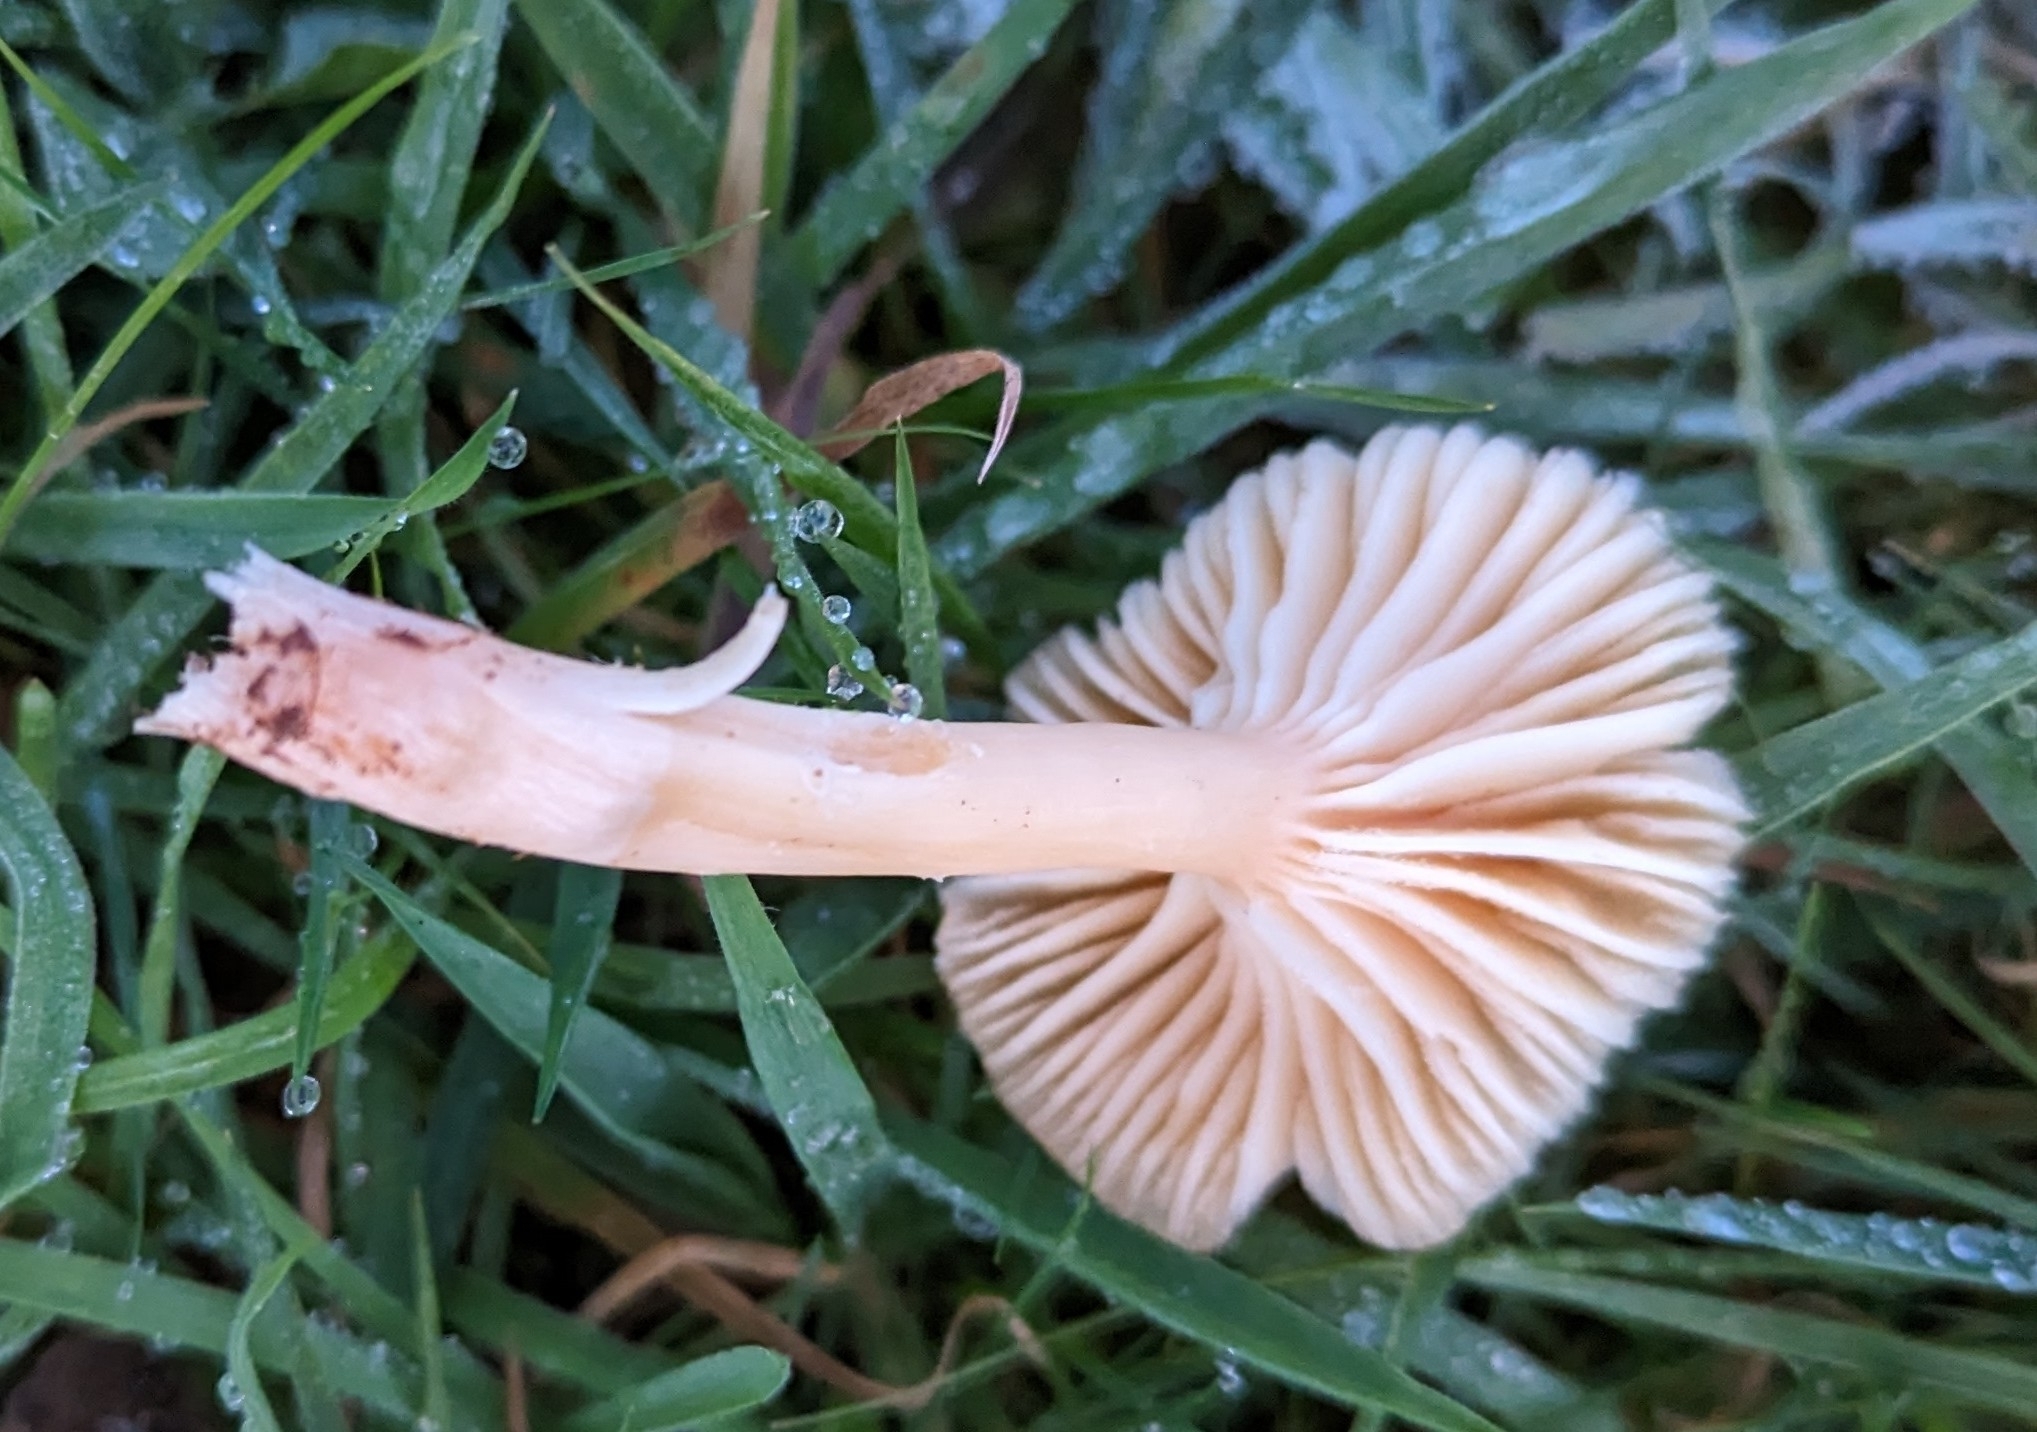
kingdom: Fungi
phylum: Basidiomycota
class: Agaricomycetes
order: Agaricales
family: Hygrophoraceae
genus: Cuphophyllus
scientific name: Cuphophyllus pratensis
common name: Meadow waxcap
